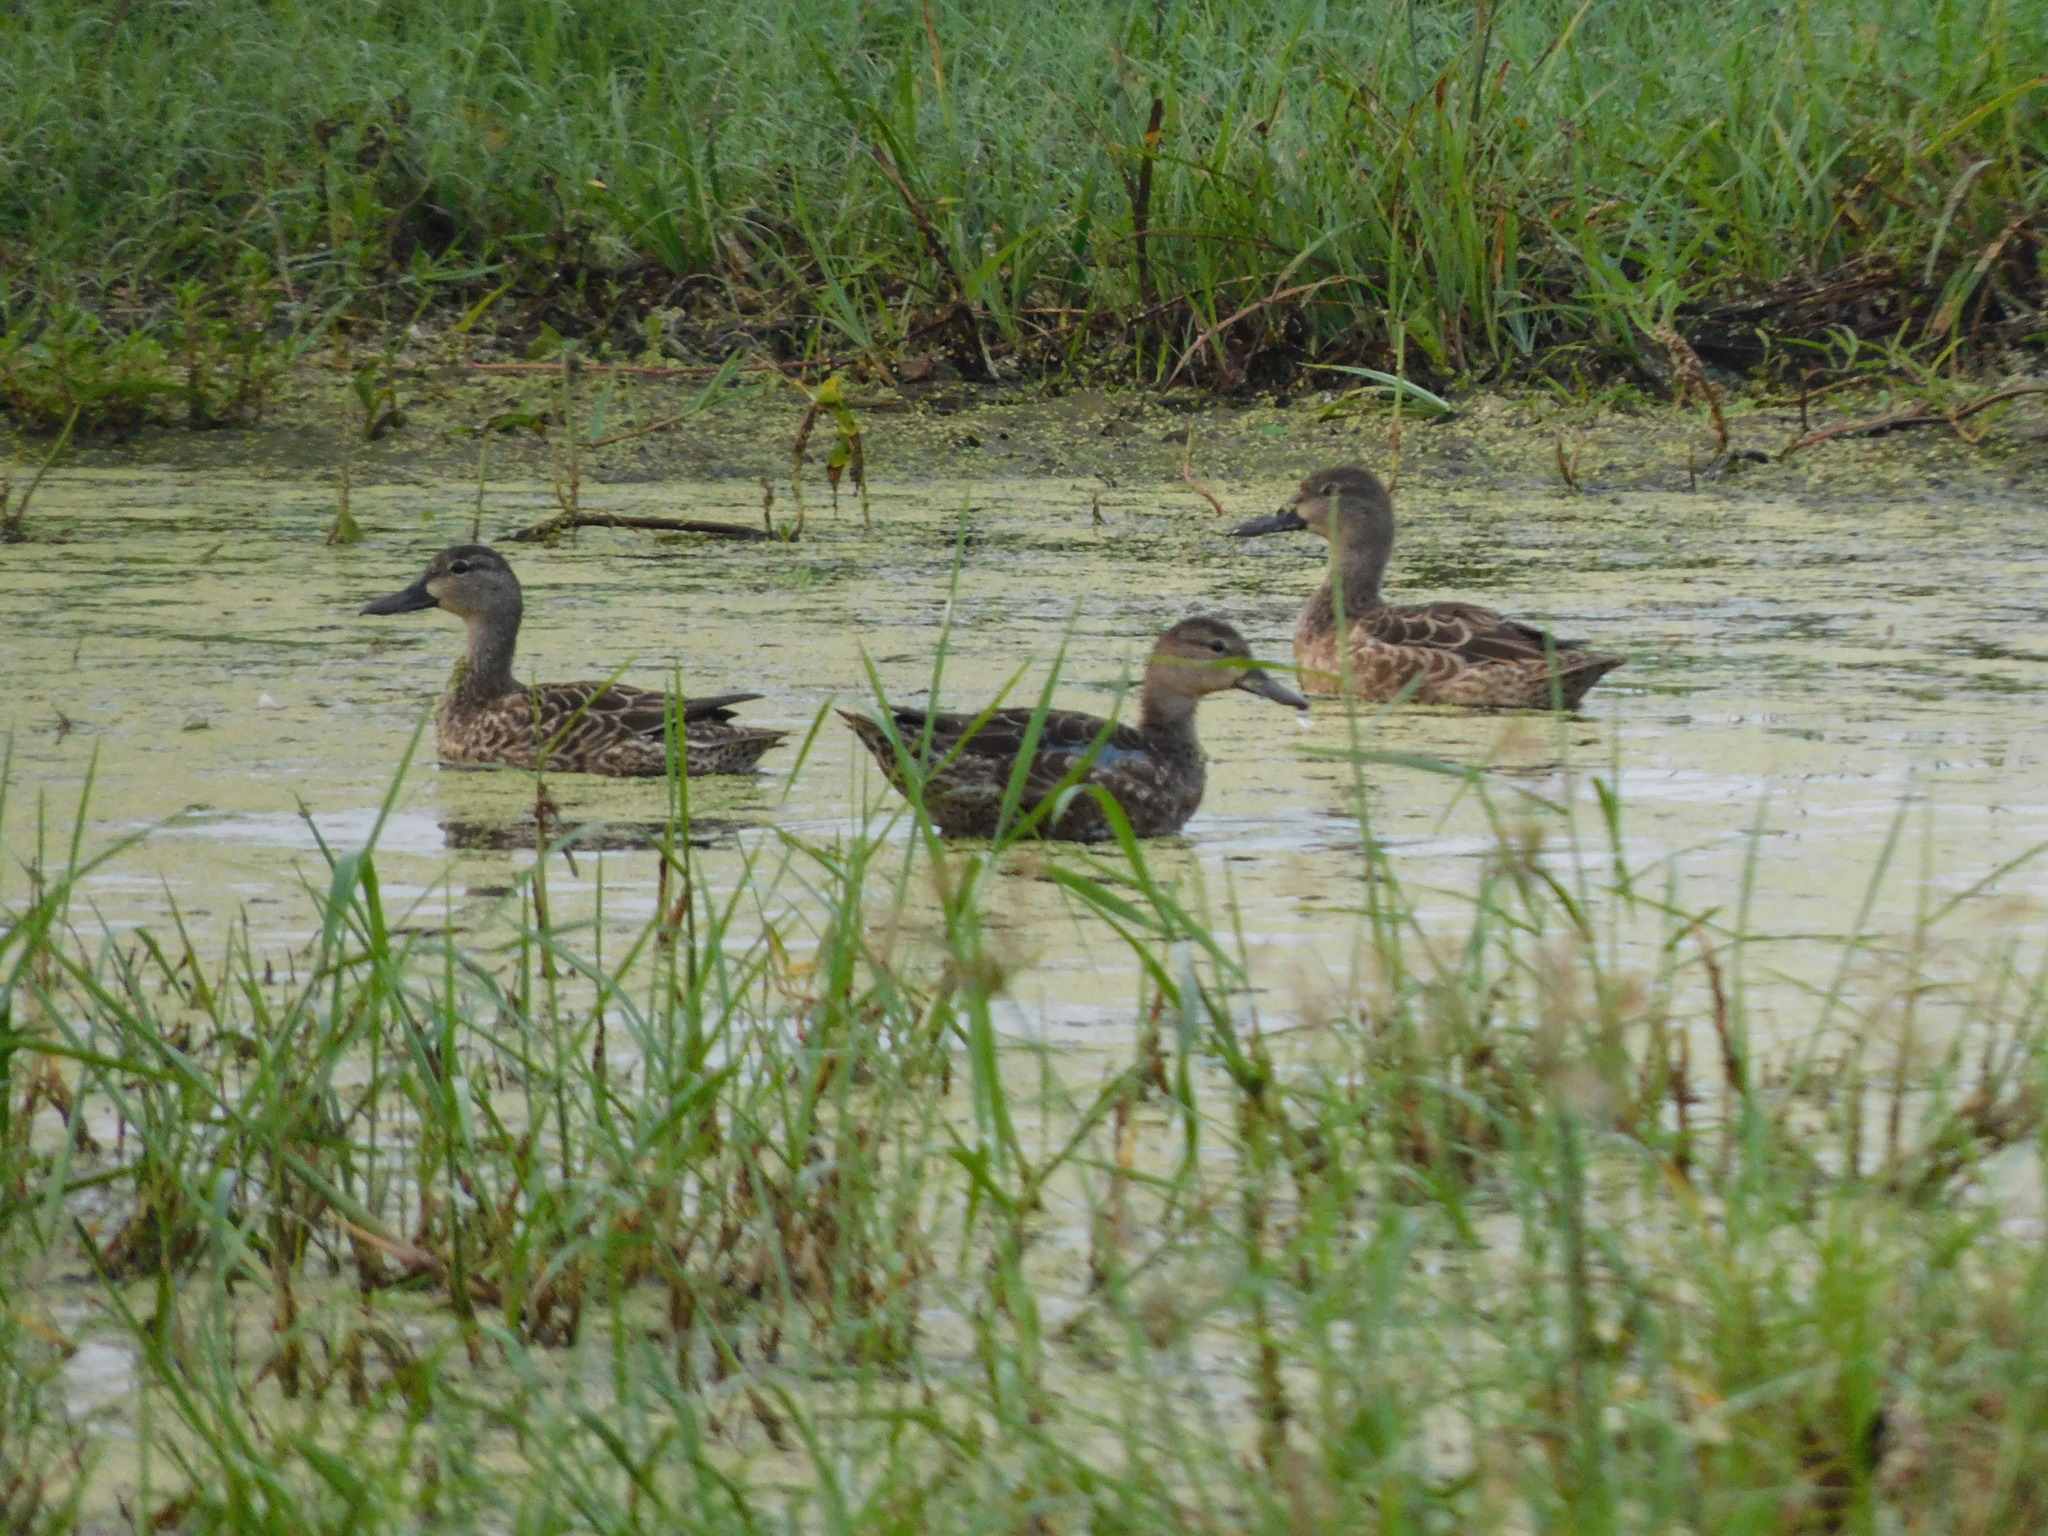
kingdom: Animalia
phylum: Chordata
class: Aves
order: Anseriformes
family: Anatidae
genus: Spatula
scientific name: Spatula discors
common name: Blue-winged teal
